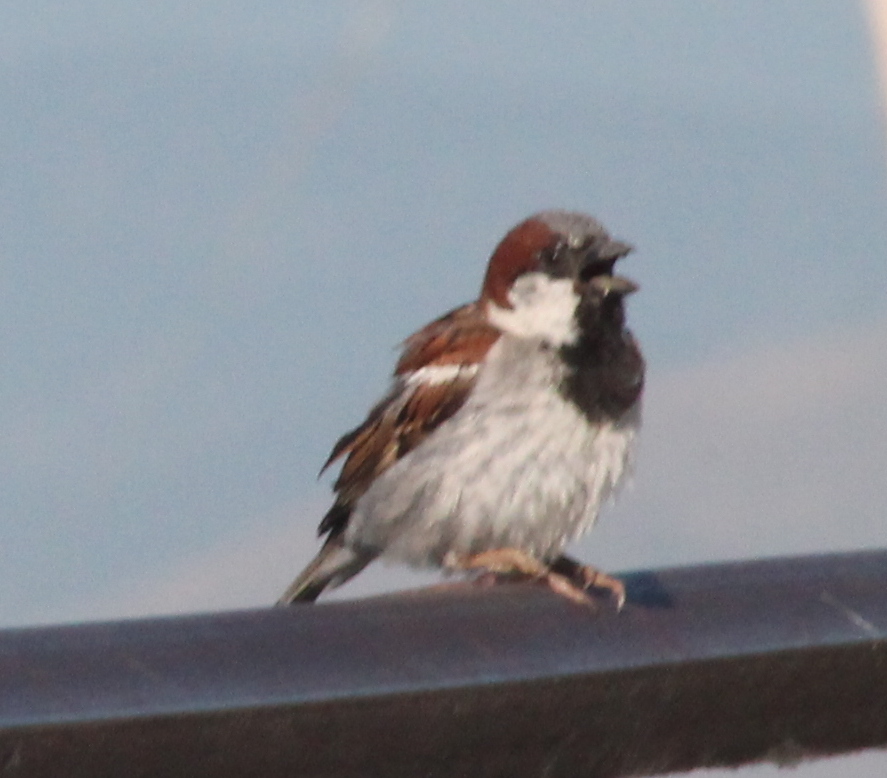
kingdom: Animalia
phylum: Chordata
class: Aves
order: Passeriformes
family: Passeridae
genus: Passer
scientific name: Passer domesticus
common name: House sparrow
